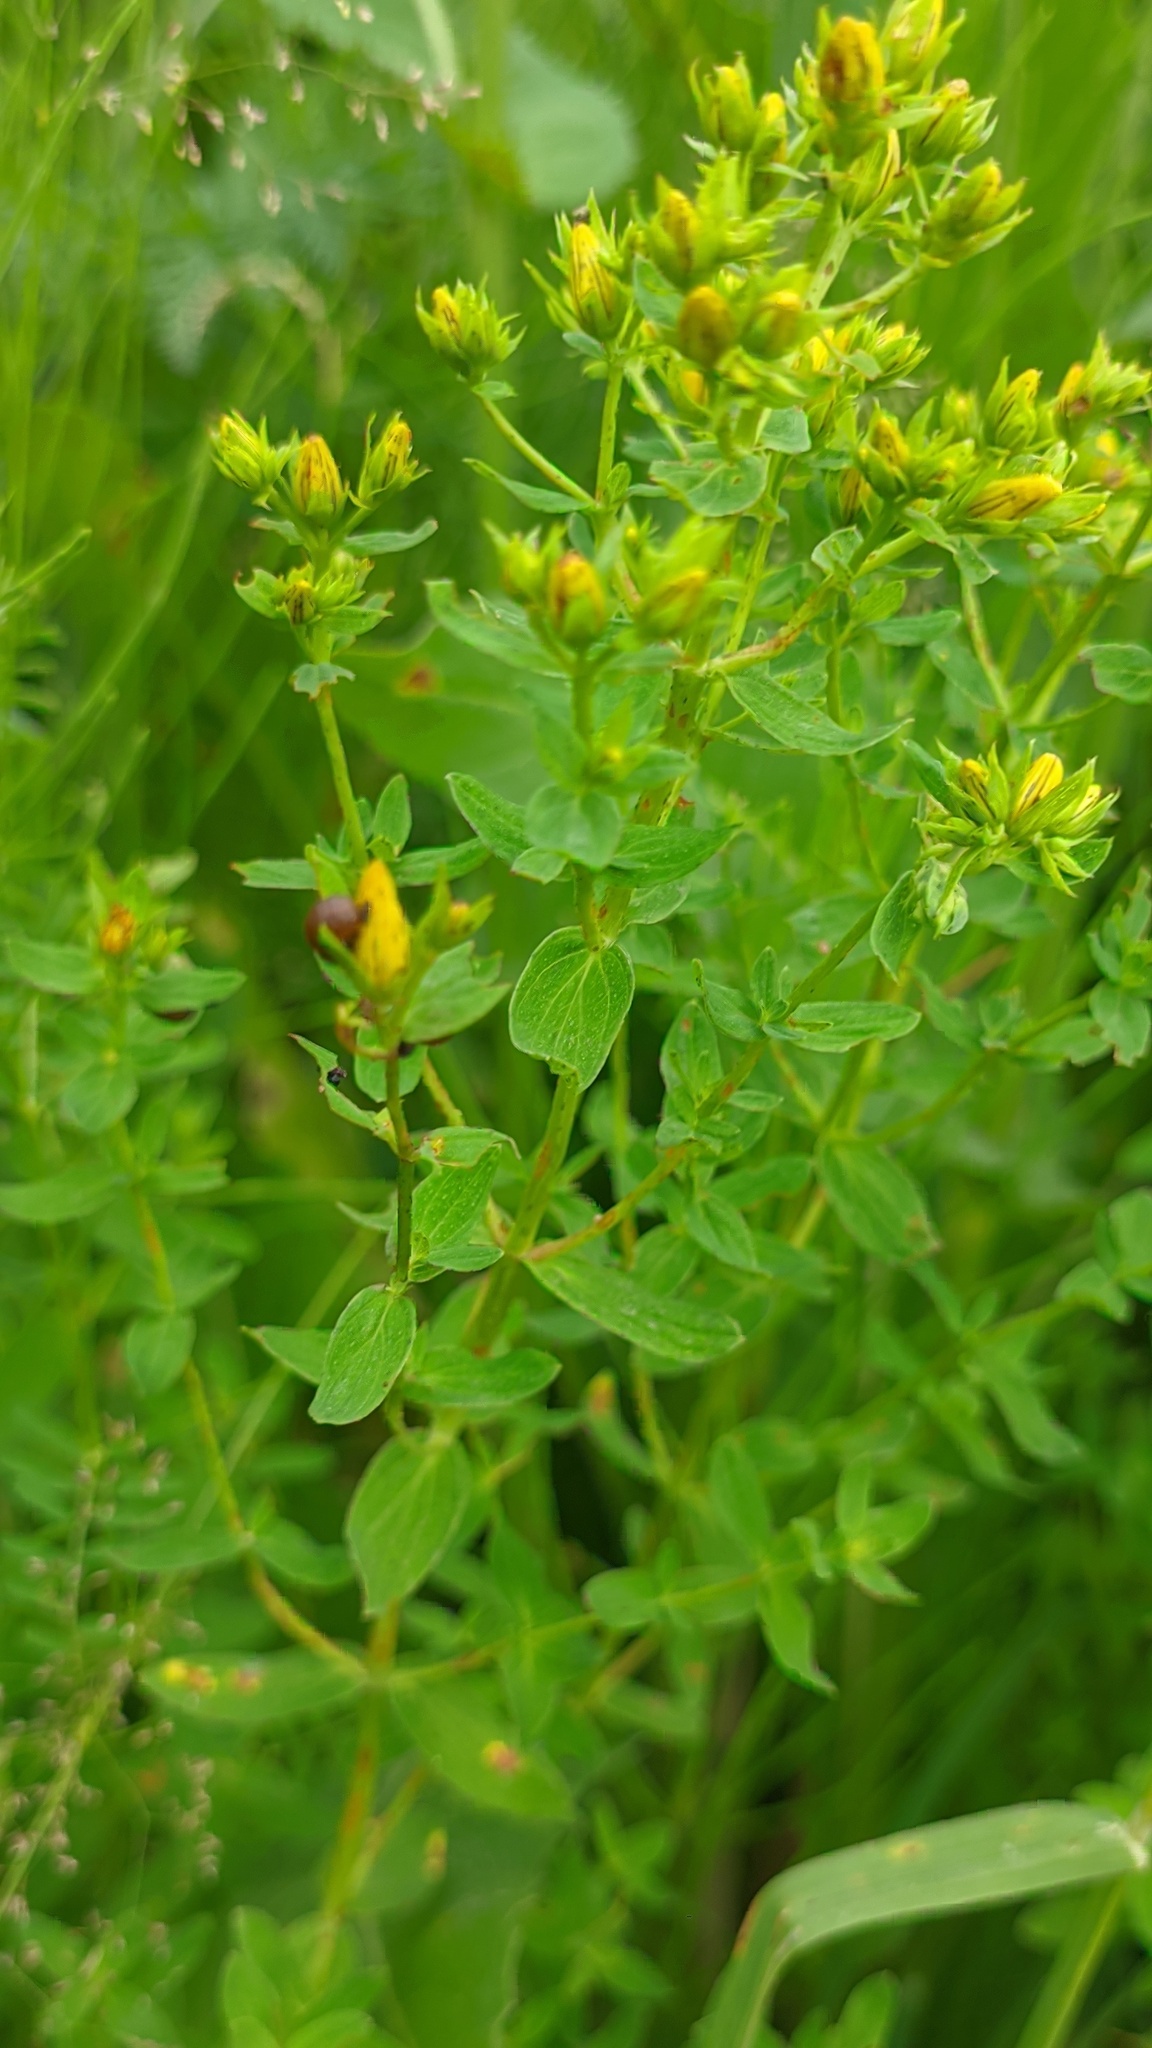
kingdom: Plantae
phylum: Tracheophyta
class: Magnoliopsida
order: Malpighiales
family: Hypericaceae
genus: Hypericum
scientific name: Hypericum maculatum
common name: Imperforate st. john's-wort
